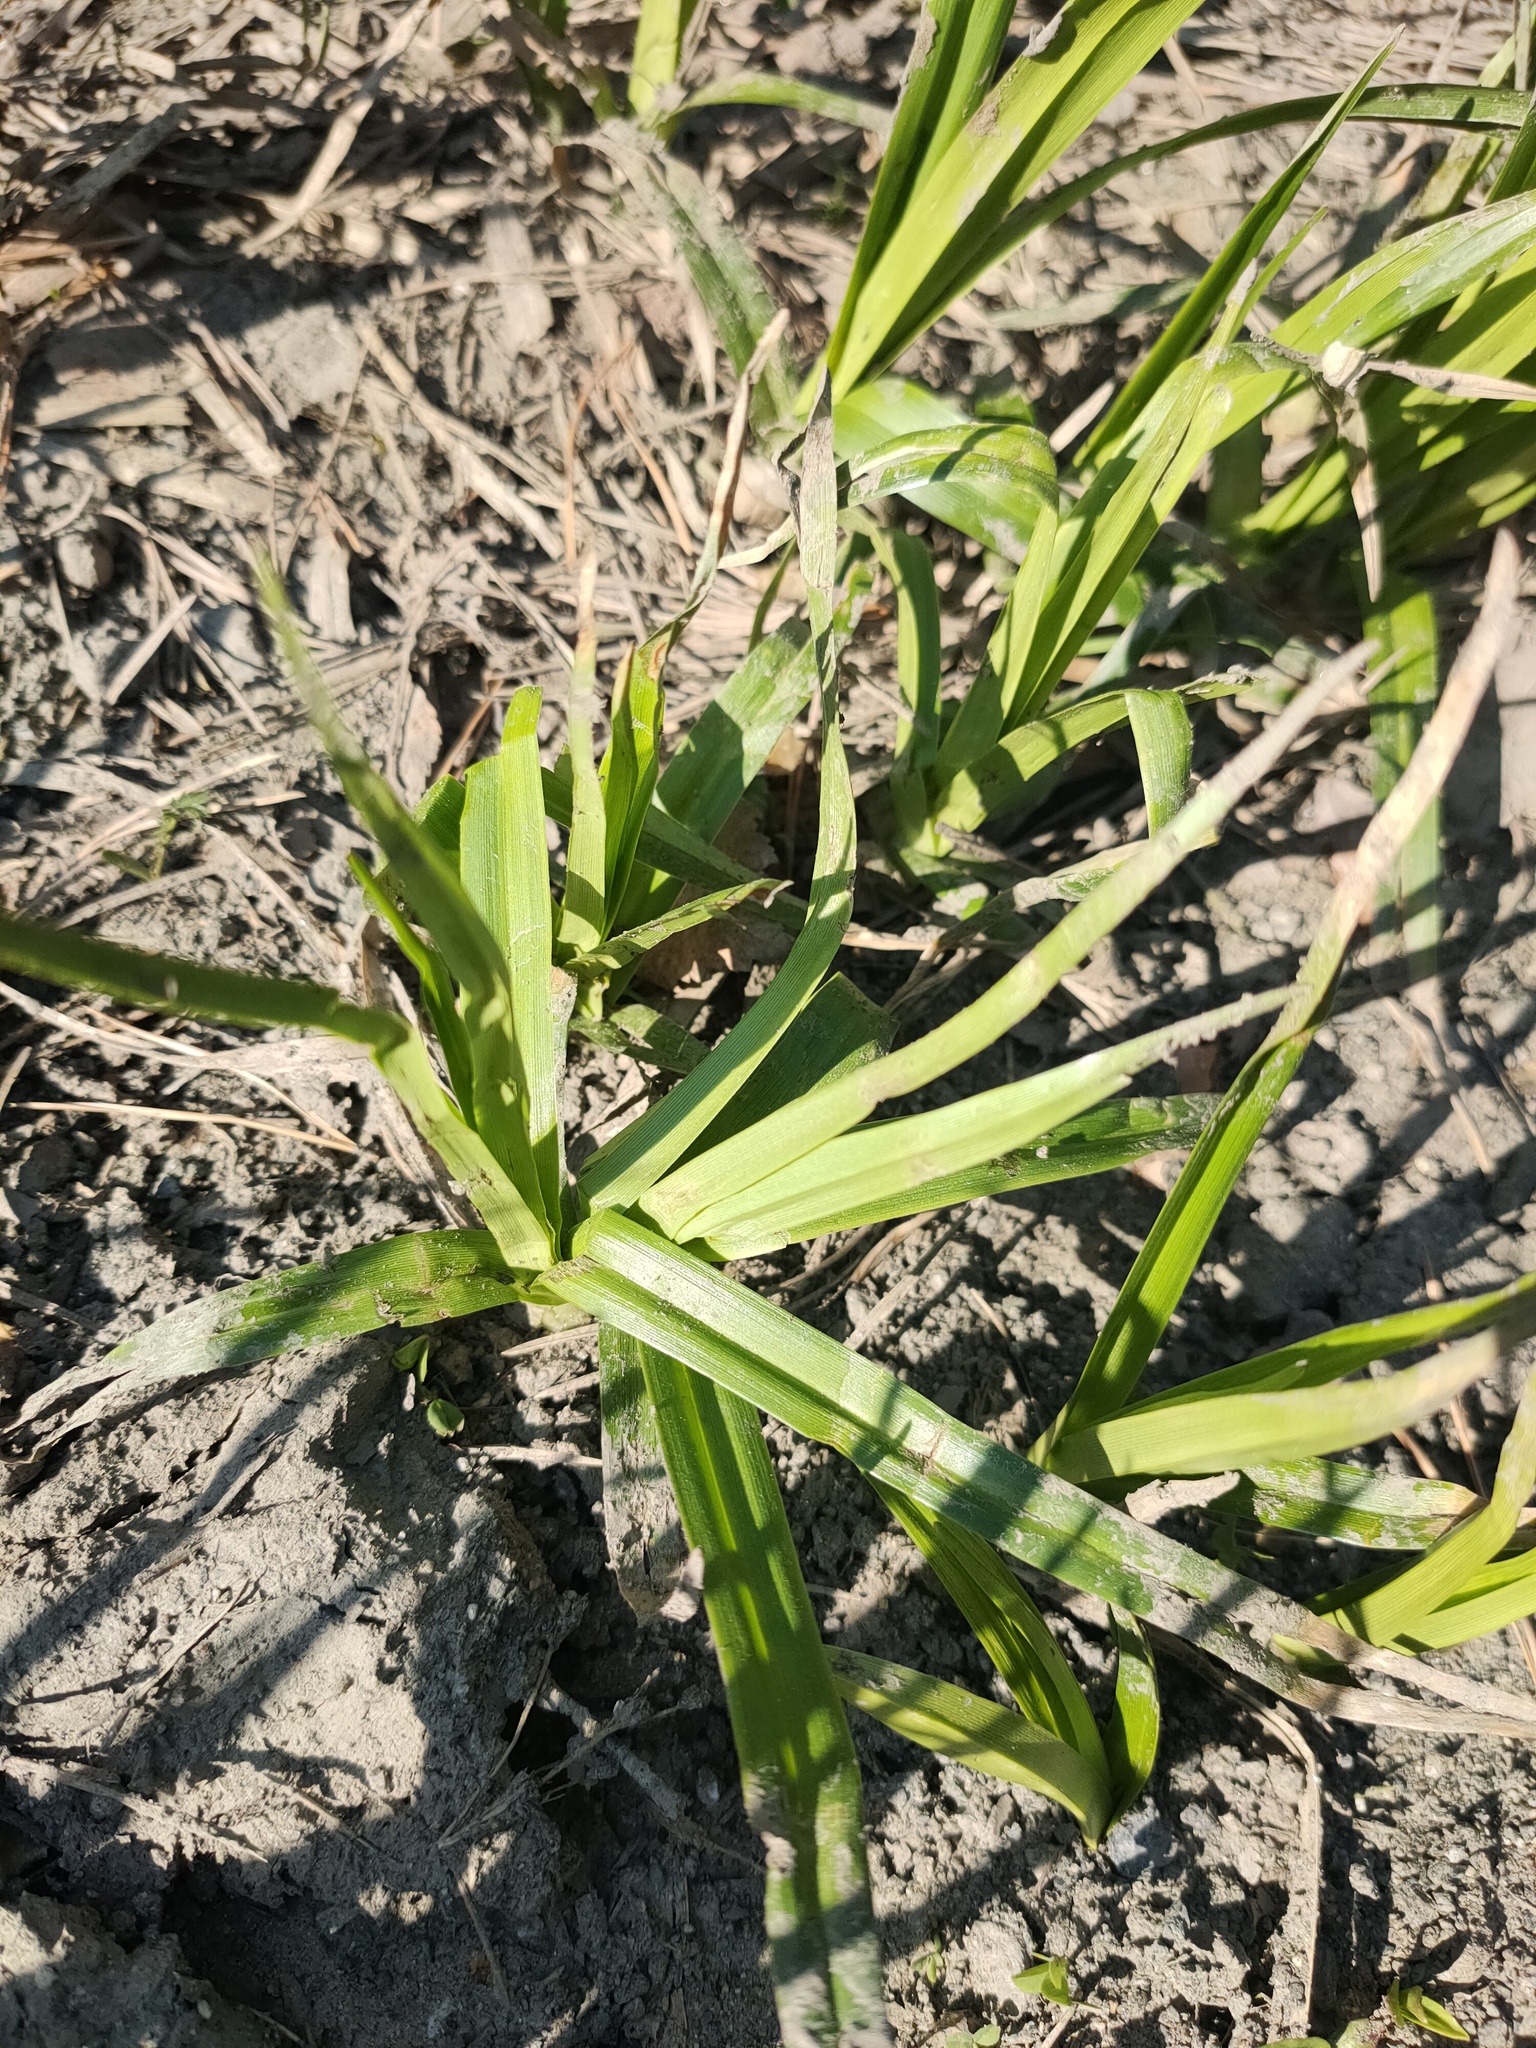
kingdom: Plantae
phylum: Tracheophyta
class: Liliopsida
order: Poales
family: Cyperaceae
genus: Scirpus
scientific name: Scirpus sylvaticus
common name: Wood club-rush
